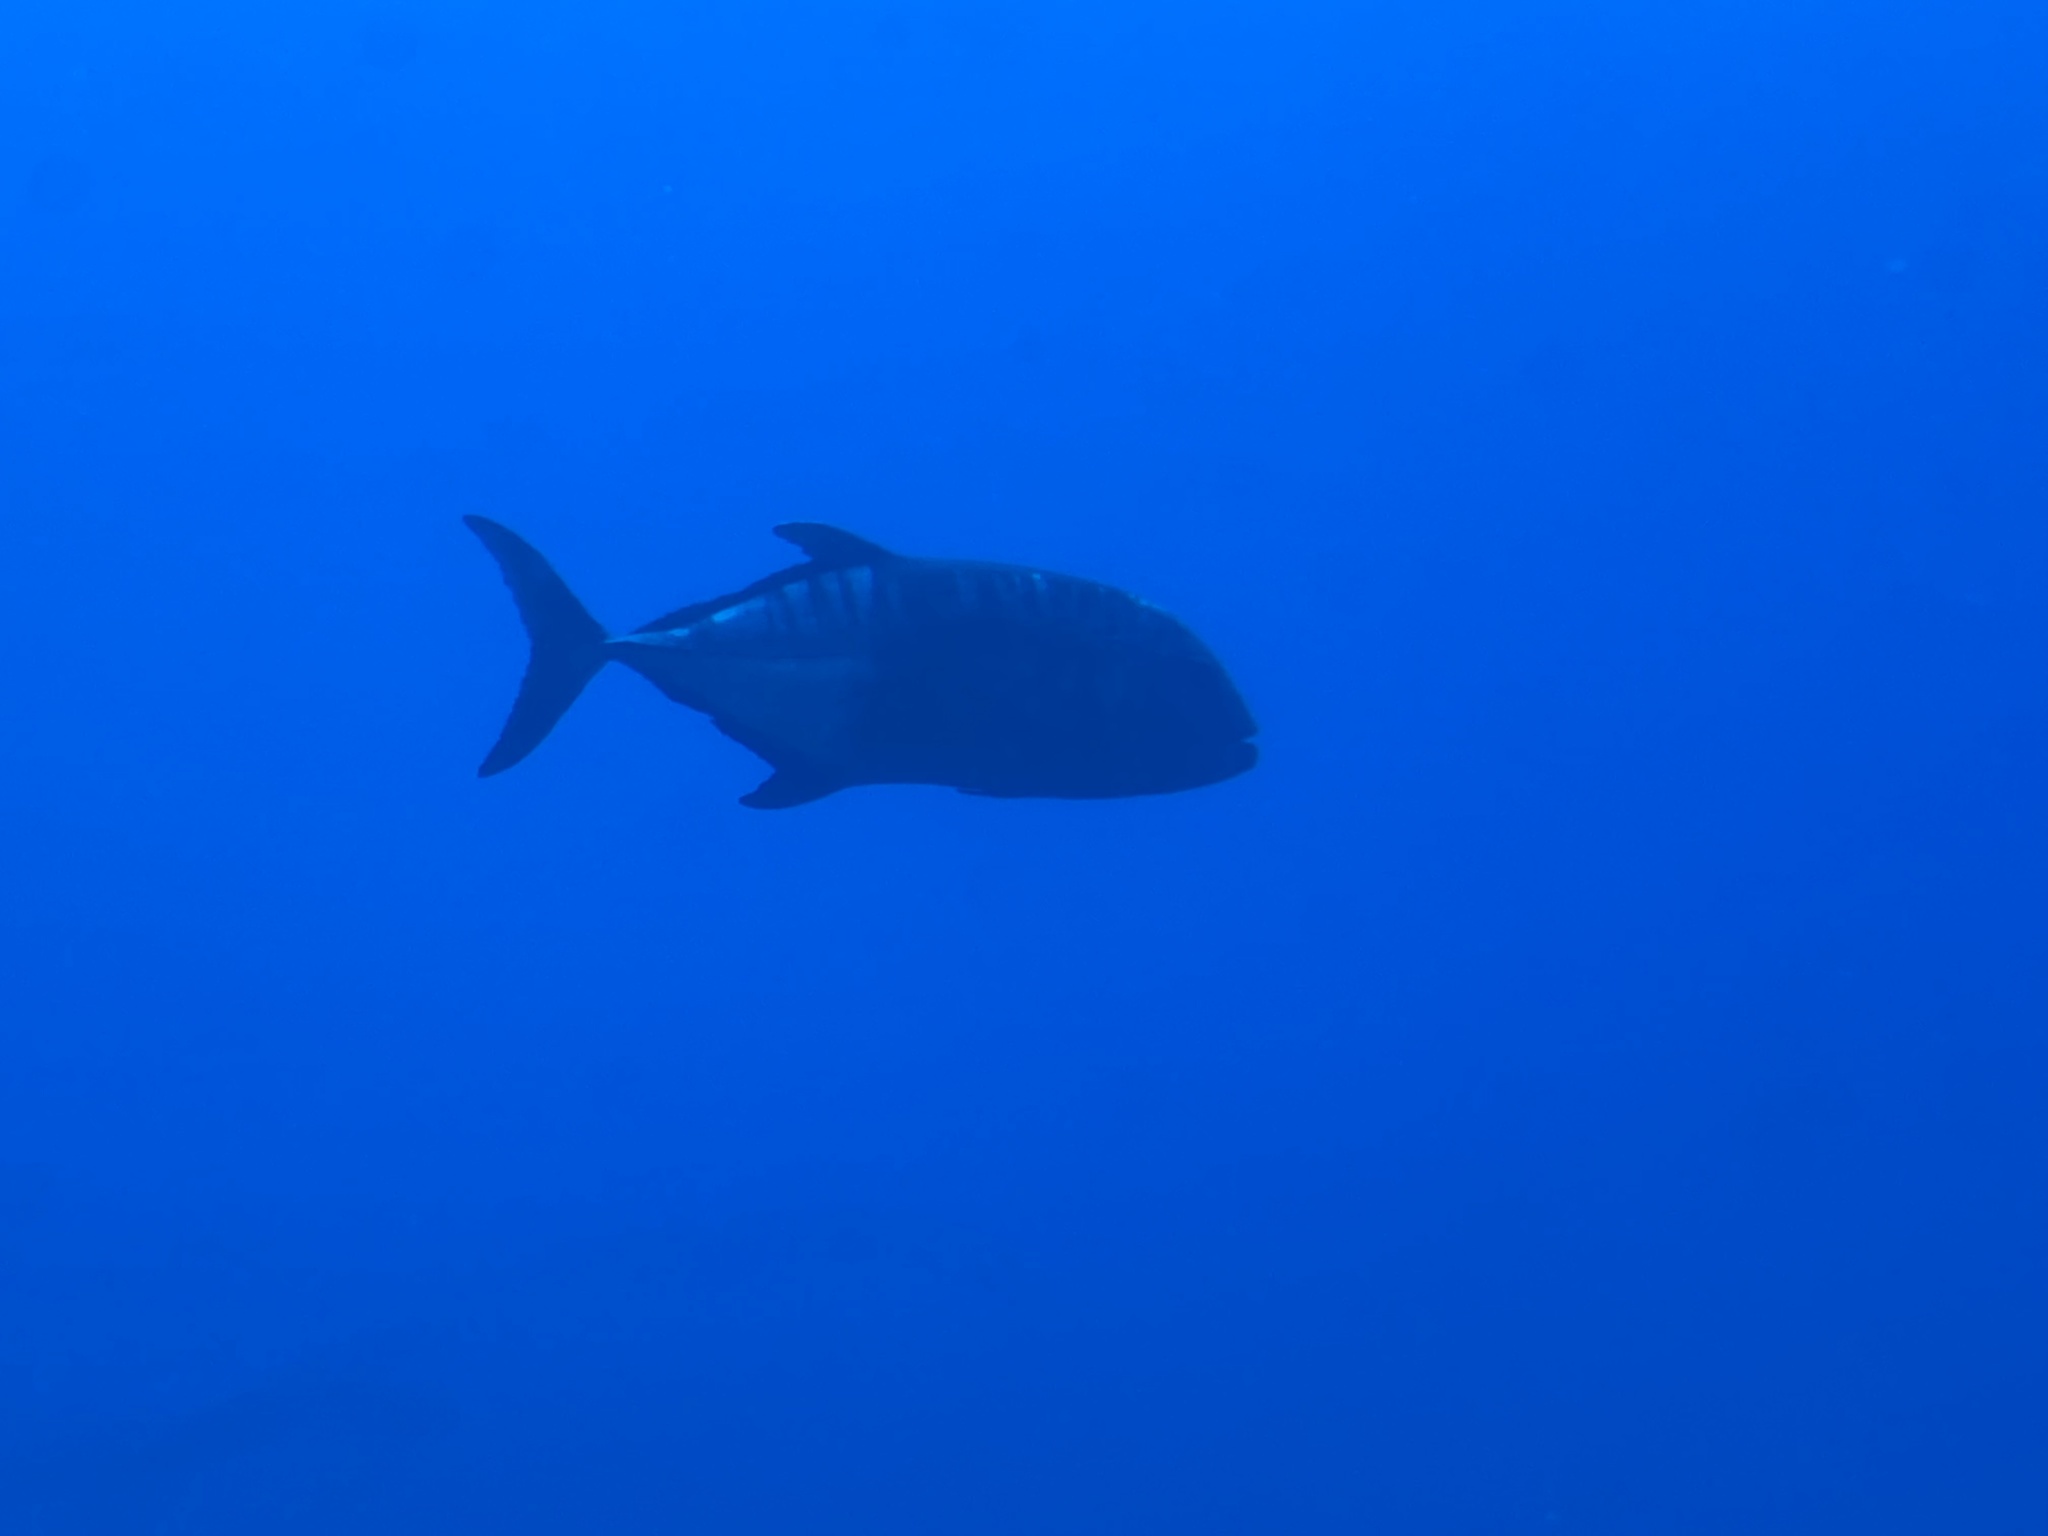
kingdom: Animalia
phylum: Chordata
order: Perciformes
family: Carangidae
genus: Caranx
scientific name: Caranx ignobilis
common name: Giant trevally
